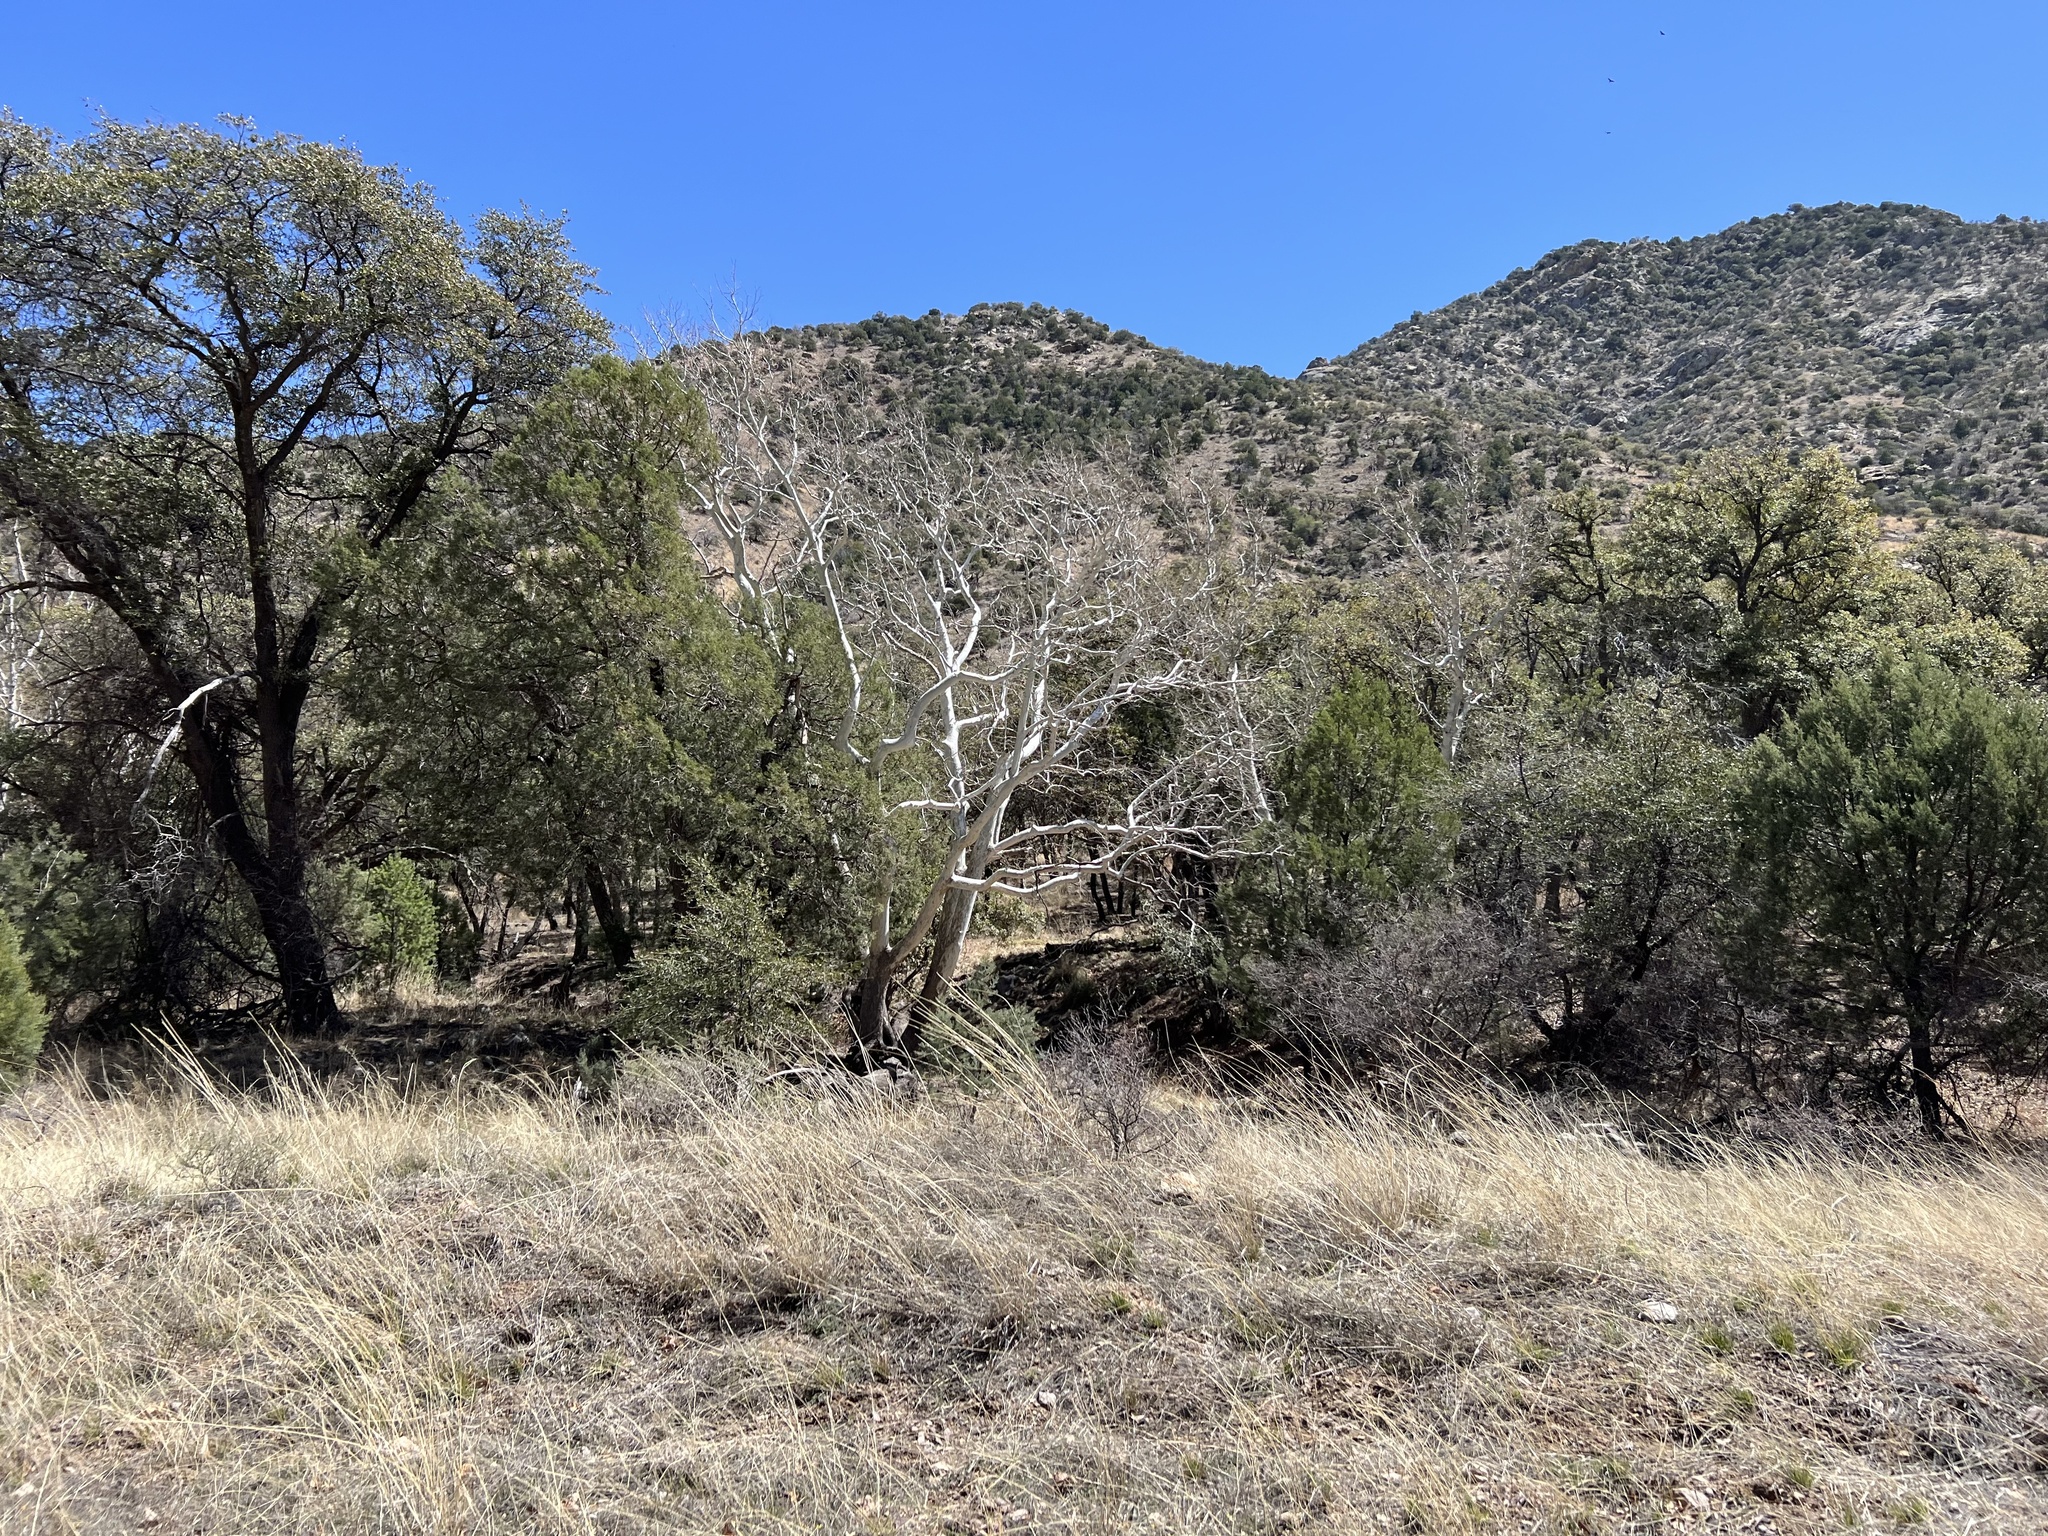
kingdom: Plantae
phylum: Tracheophyta
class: Magnoliopsida
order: Proteales
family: Platanaceae
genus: Platanus
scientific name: Platanus wrightii
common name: Arizona sycamore
